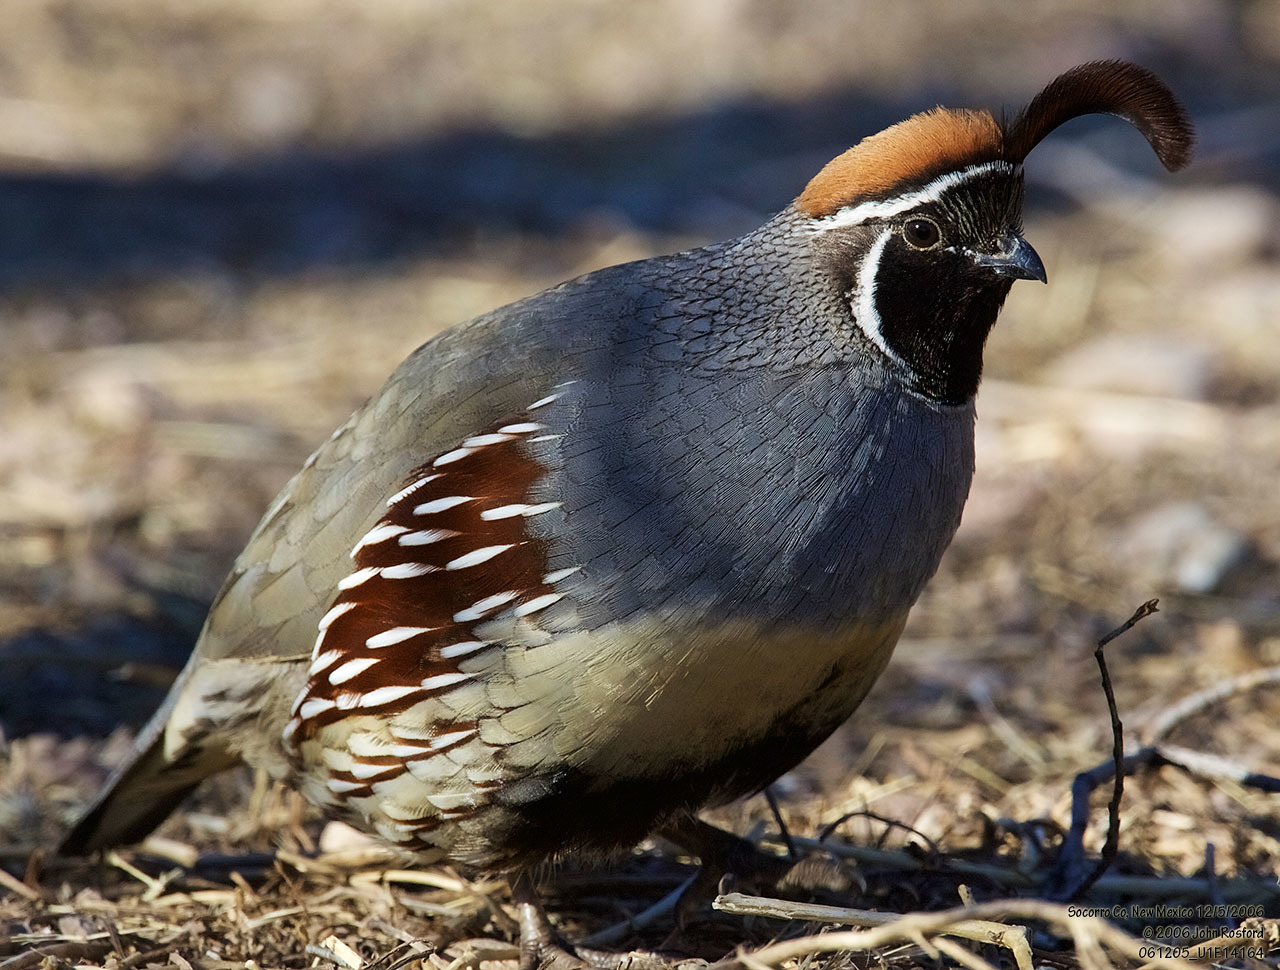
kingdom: Animalia
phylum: Chordata
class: Aves
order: Galliformes
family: Odontophoridae
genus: Callipepla
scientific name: Callipepla gambelii
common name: Gambel's quail
